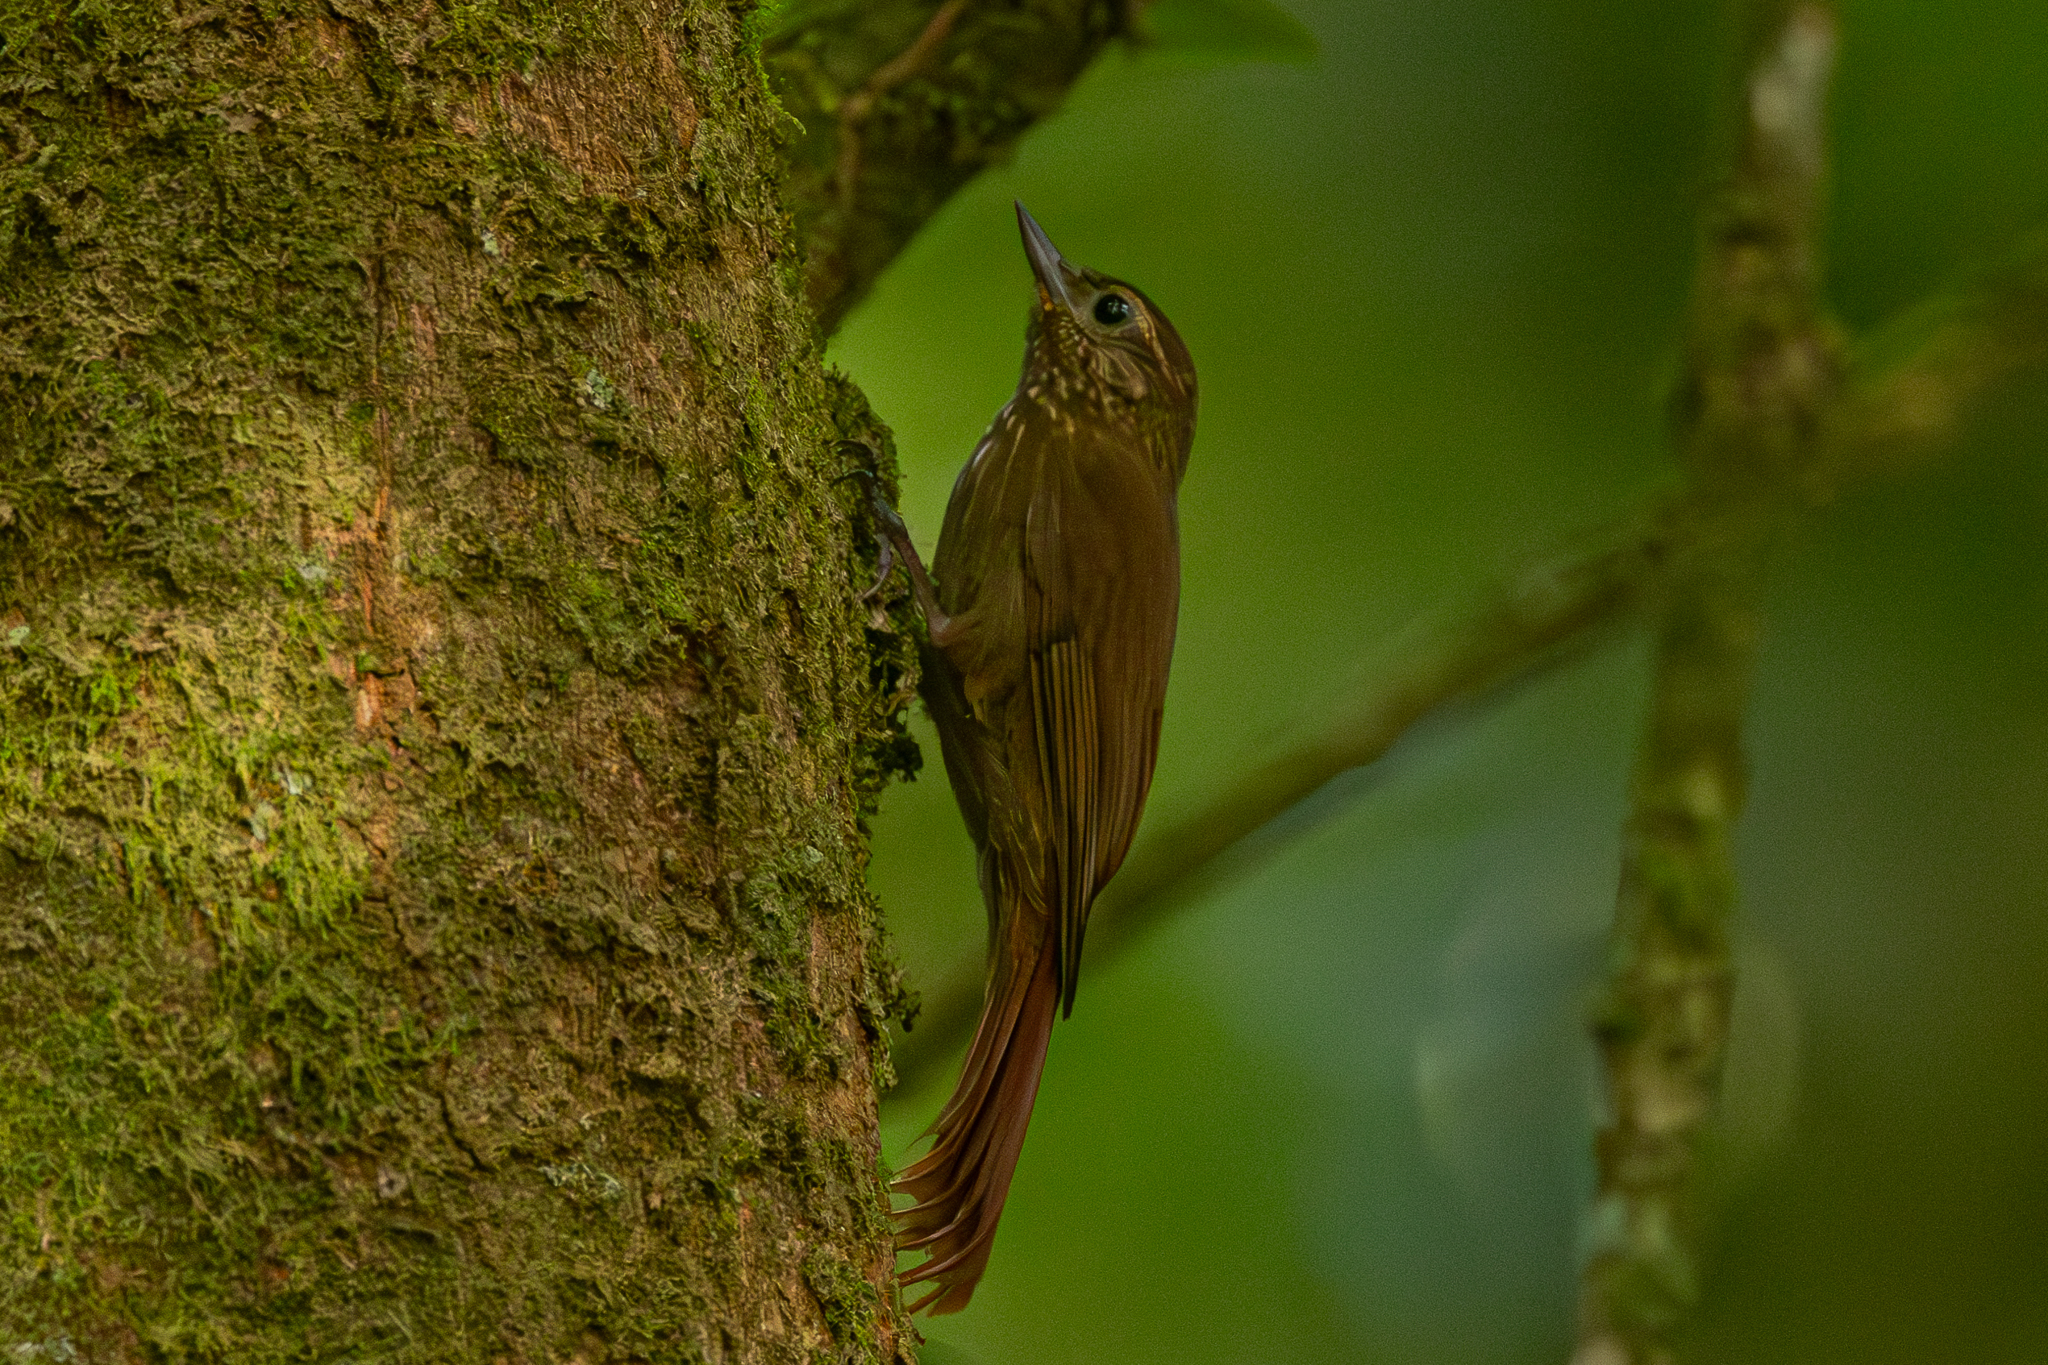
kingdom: Animalia
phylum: Chordata
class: Aves
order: Passeriformes
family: Furnariidae
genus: Glyphorynchus
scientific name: Glyphorynchus spirurus
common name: Wedge-billed woodcreeper
